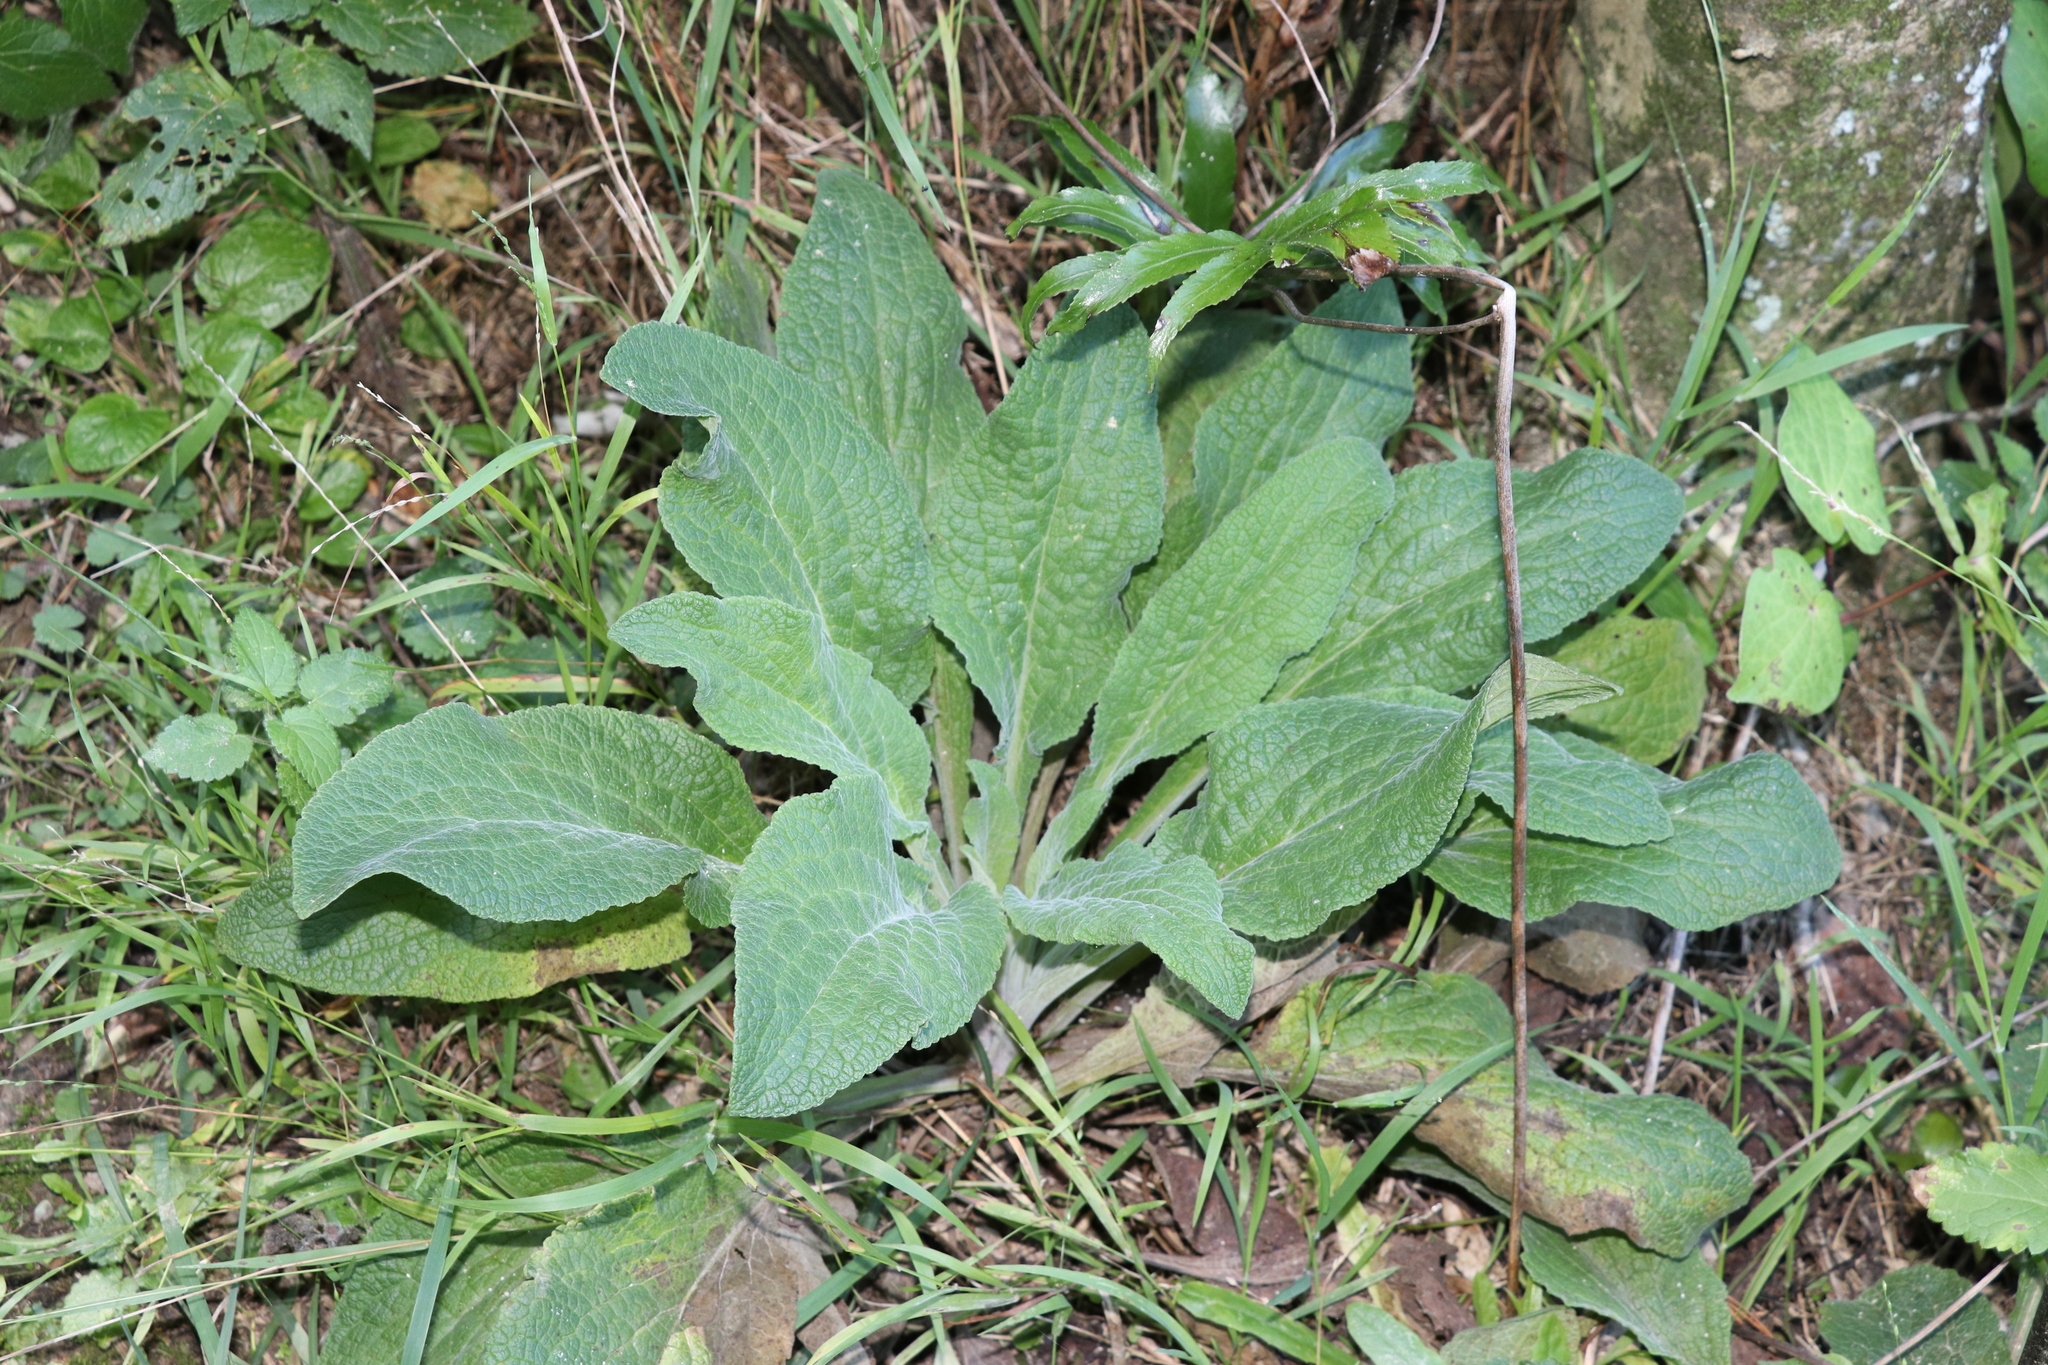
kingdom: Plantae
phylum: Tracheophyta
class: Magnoliopsida
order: Lamiales
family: Plantaginaceae
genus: Digitalis
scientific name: Digitalis purpurea
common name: Foxglove
